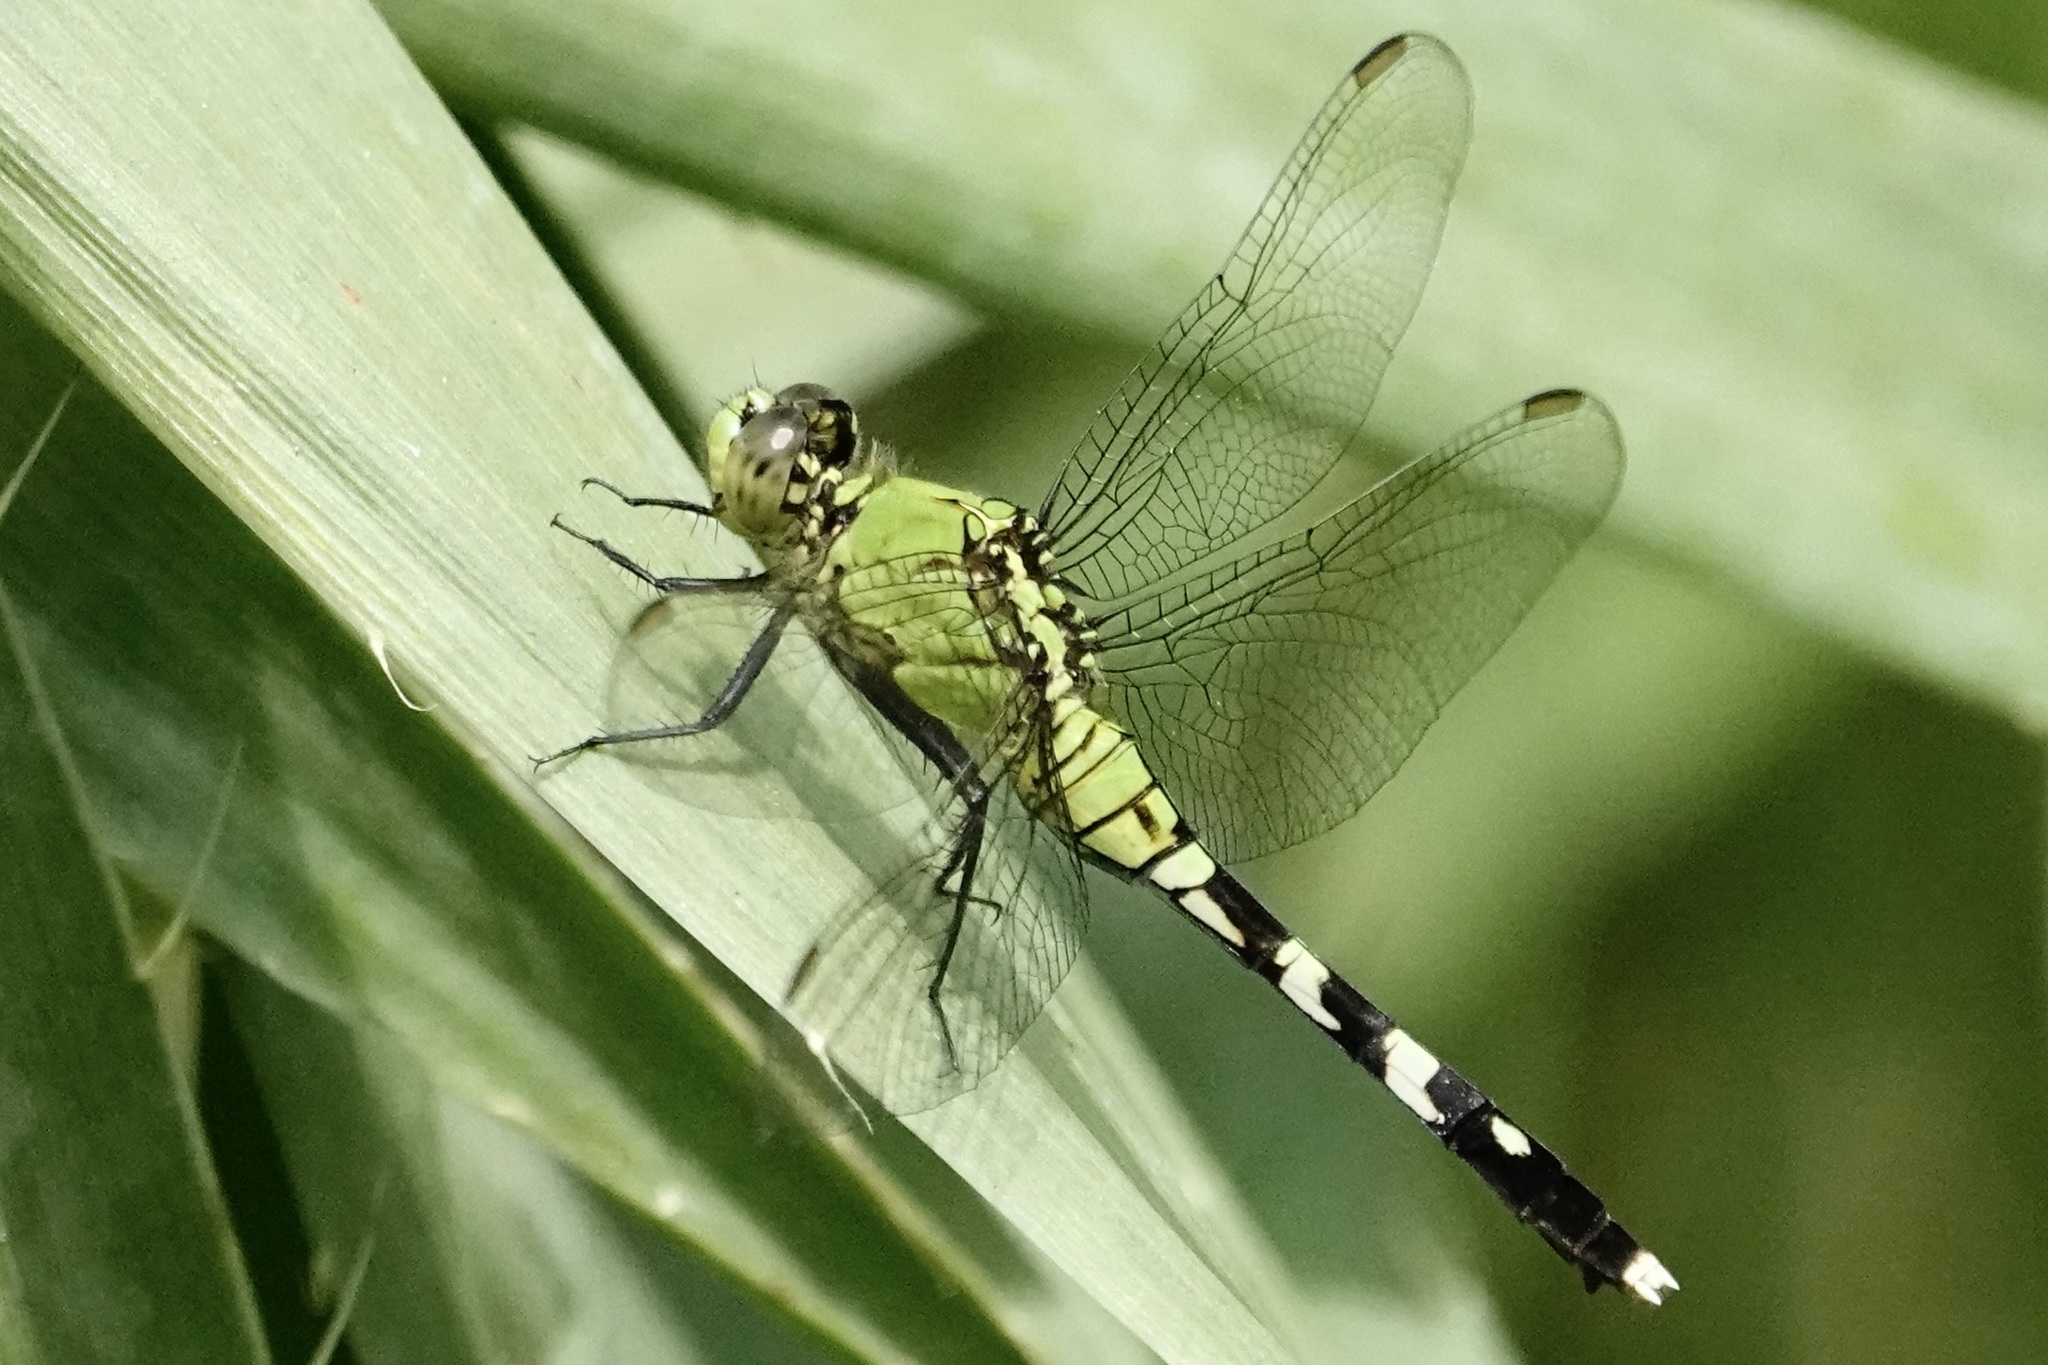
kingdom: Animalia
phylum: Arthropoda
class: Insecta
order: Odonata
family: Libellulidae
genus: Erythemis
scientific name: Erythemis simplicicollis
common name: Eastern pondhawk
